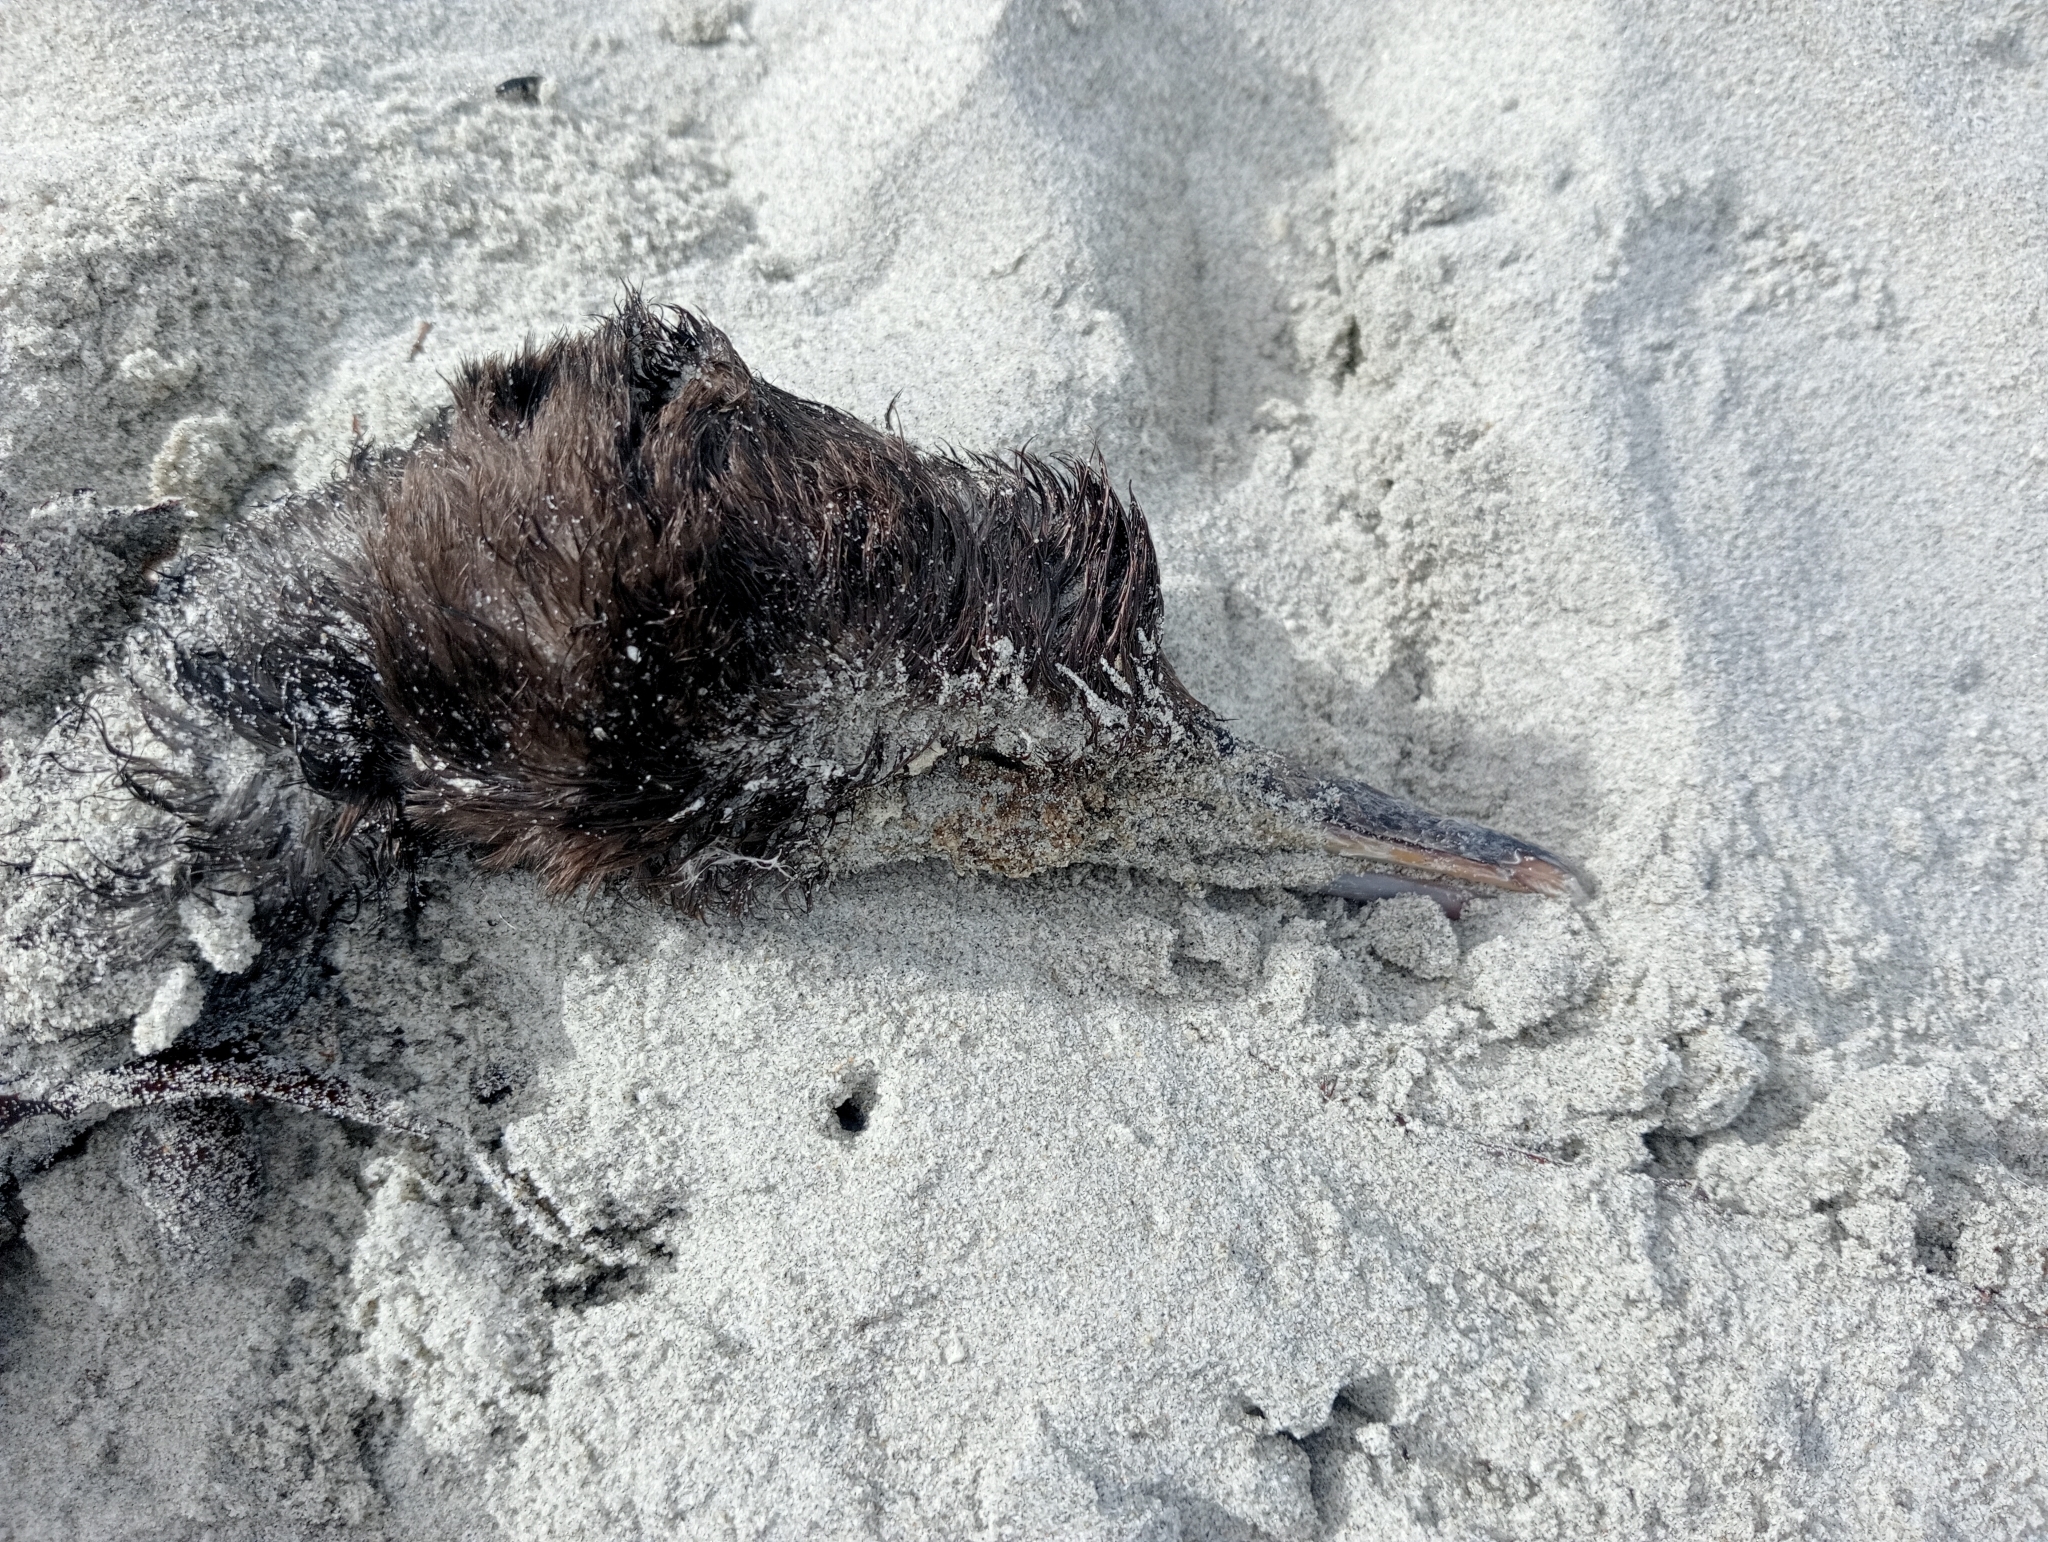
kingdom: Animalia
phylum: Chordata
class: Aves
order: Suliformes
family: Phalacrocoracidae
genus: Leucocarbo
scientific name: Leucocarbo chalconotus
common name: Stewart shag
